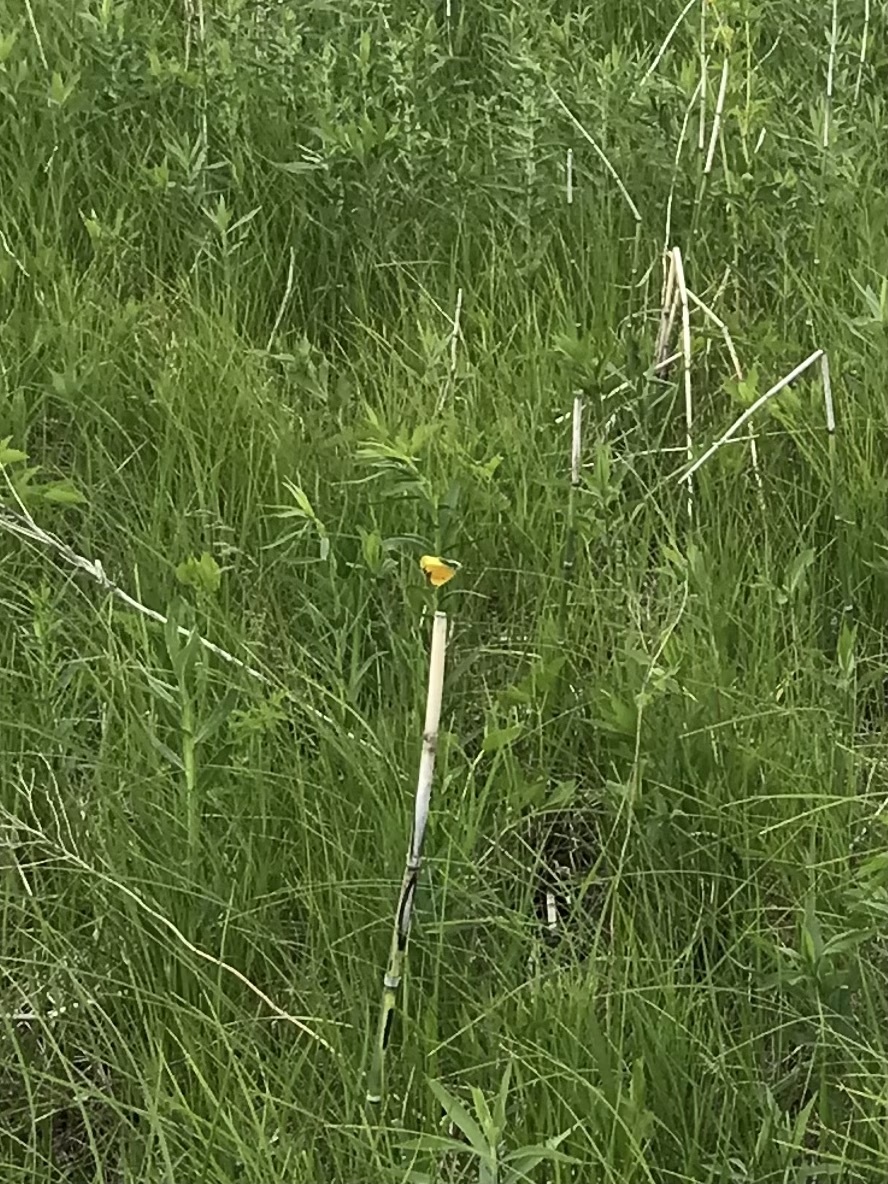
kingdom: Animalia
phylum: Arthropoda
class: Insecta
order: Lepidoptera
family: Pieridae
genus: Colias
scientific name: Colias eurytheme
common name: Alfalfa butterfly
